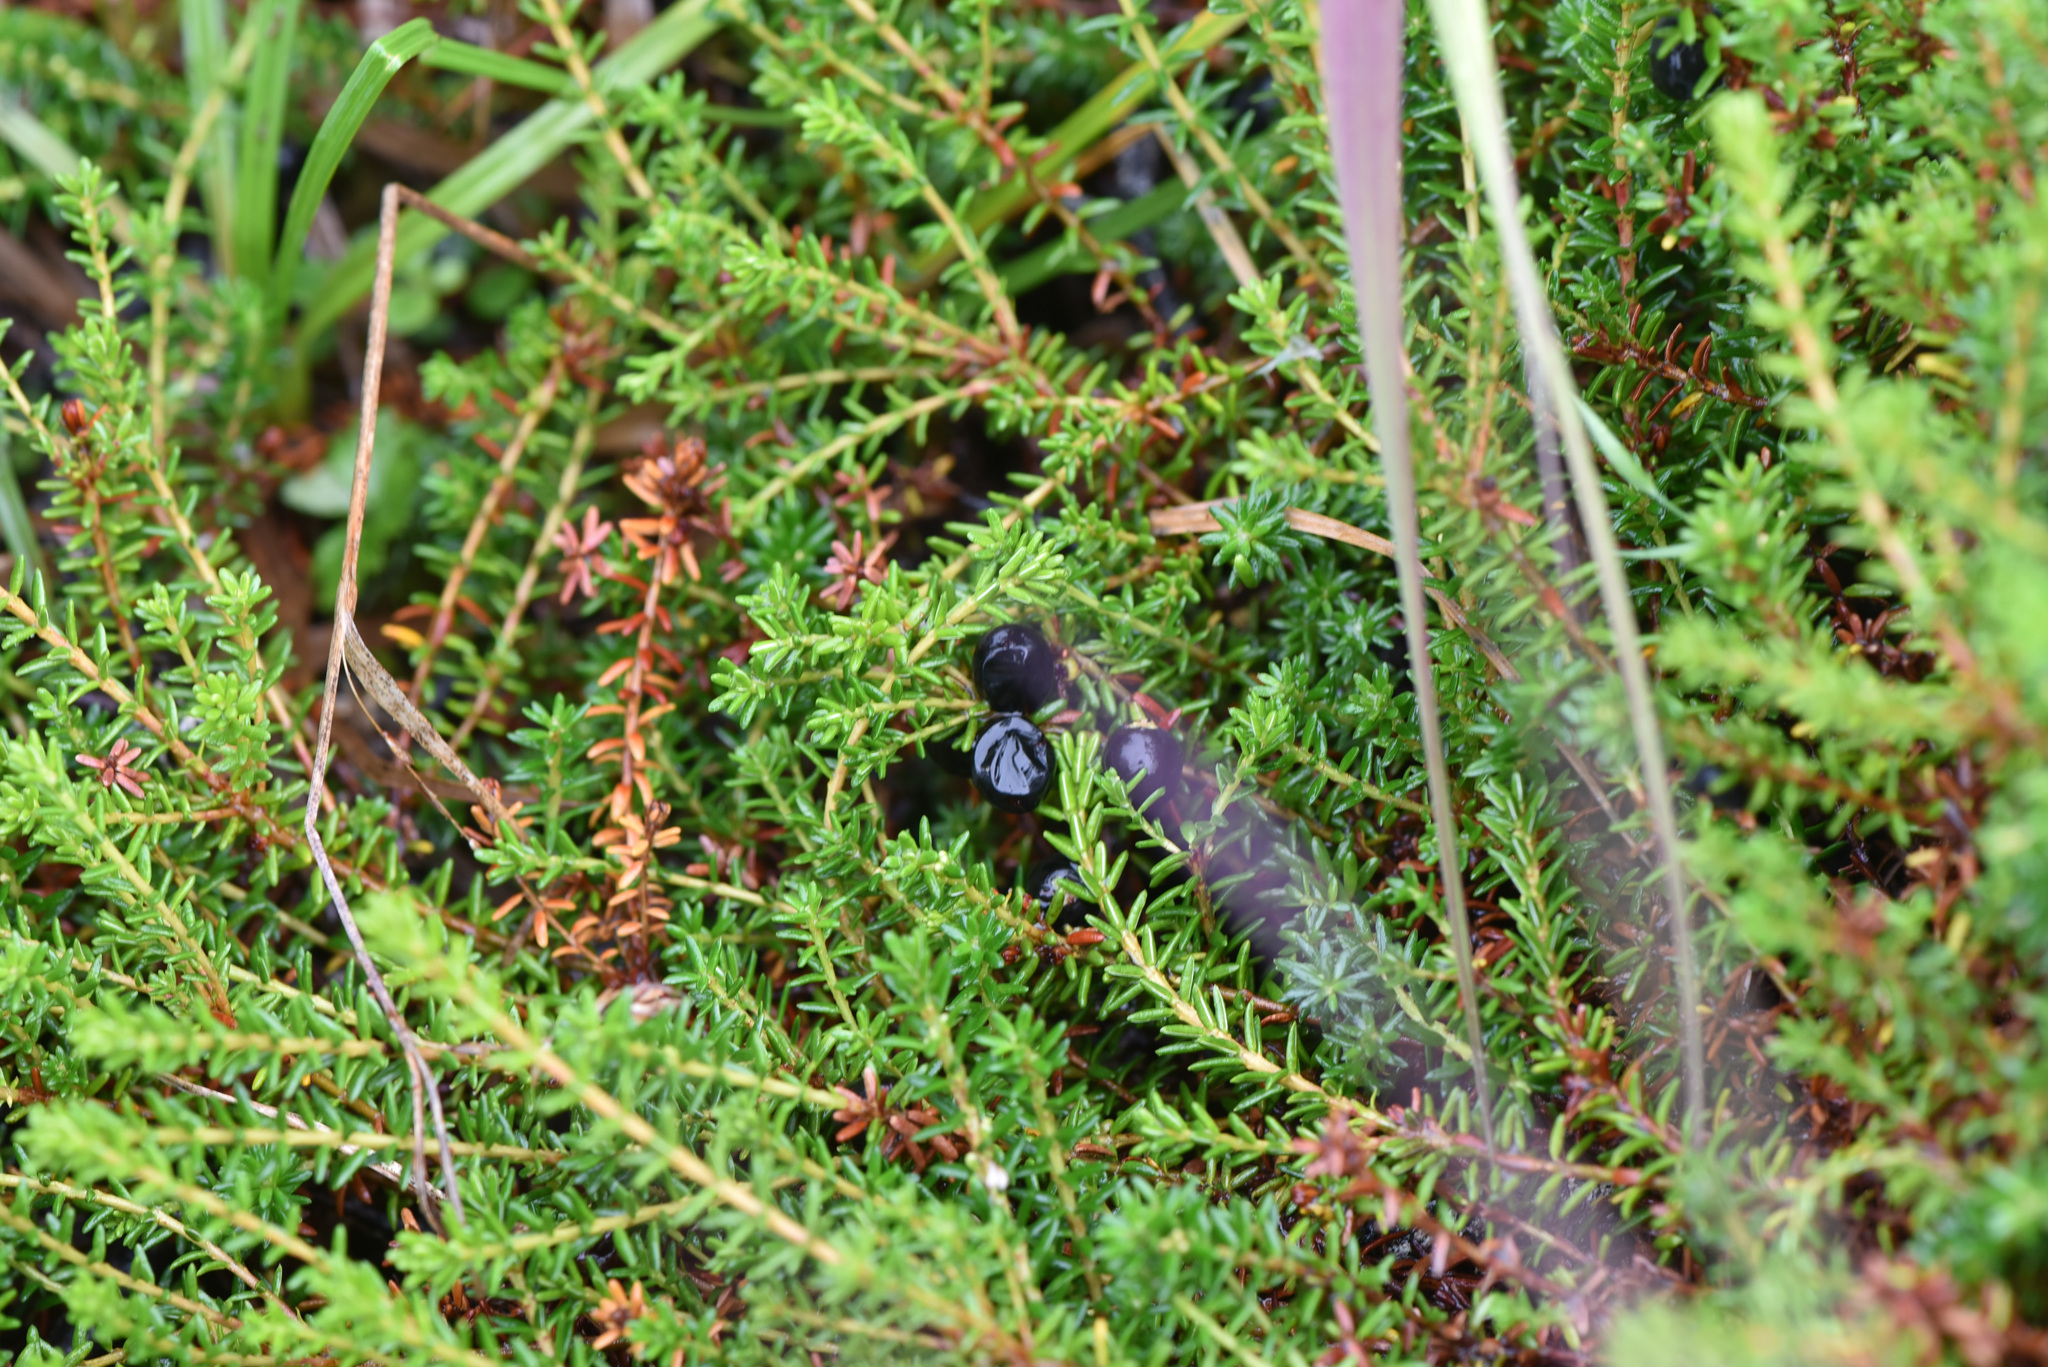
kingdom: Plantae
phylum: Tracheophyta
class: Magnoliopsida
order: Ericales
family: Ericaceae
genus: Empetrum
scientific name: Empetrum nigrum
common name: Black crowberry
